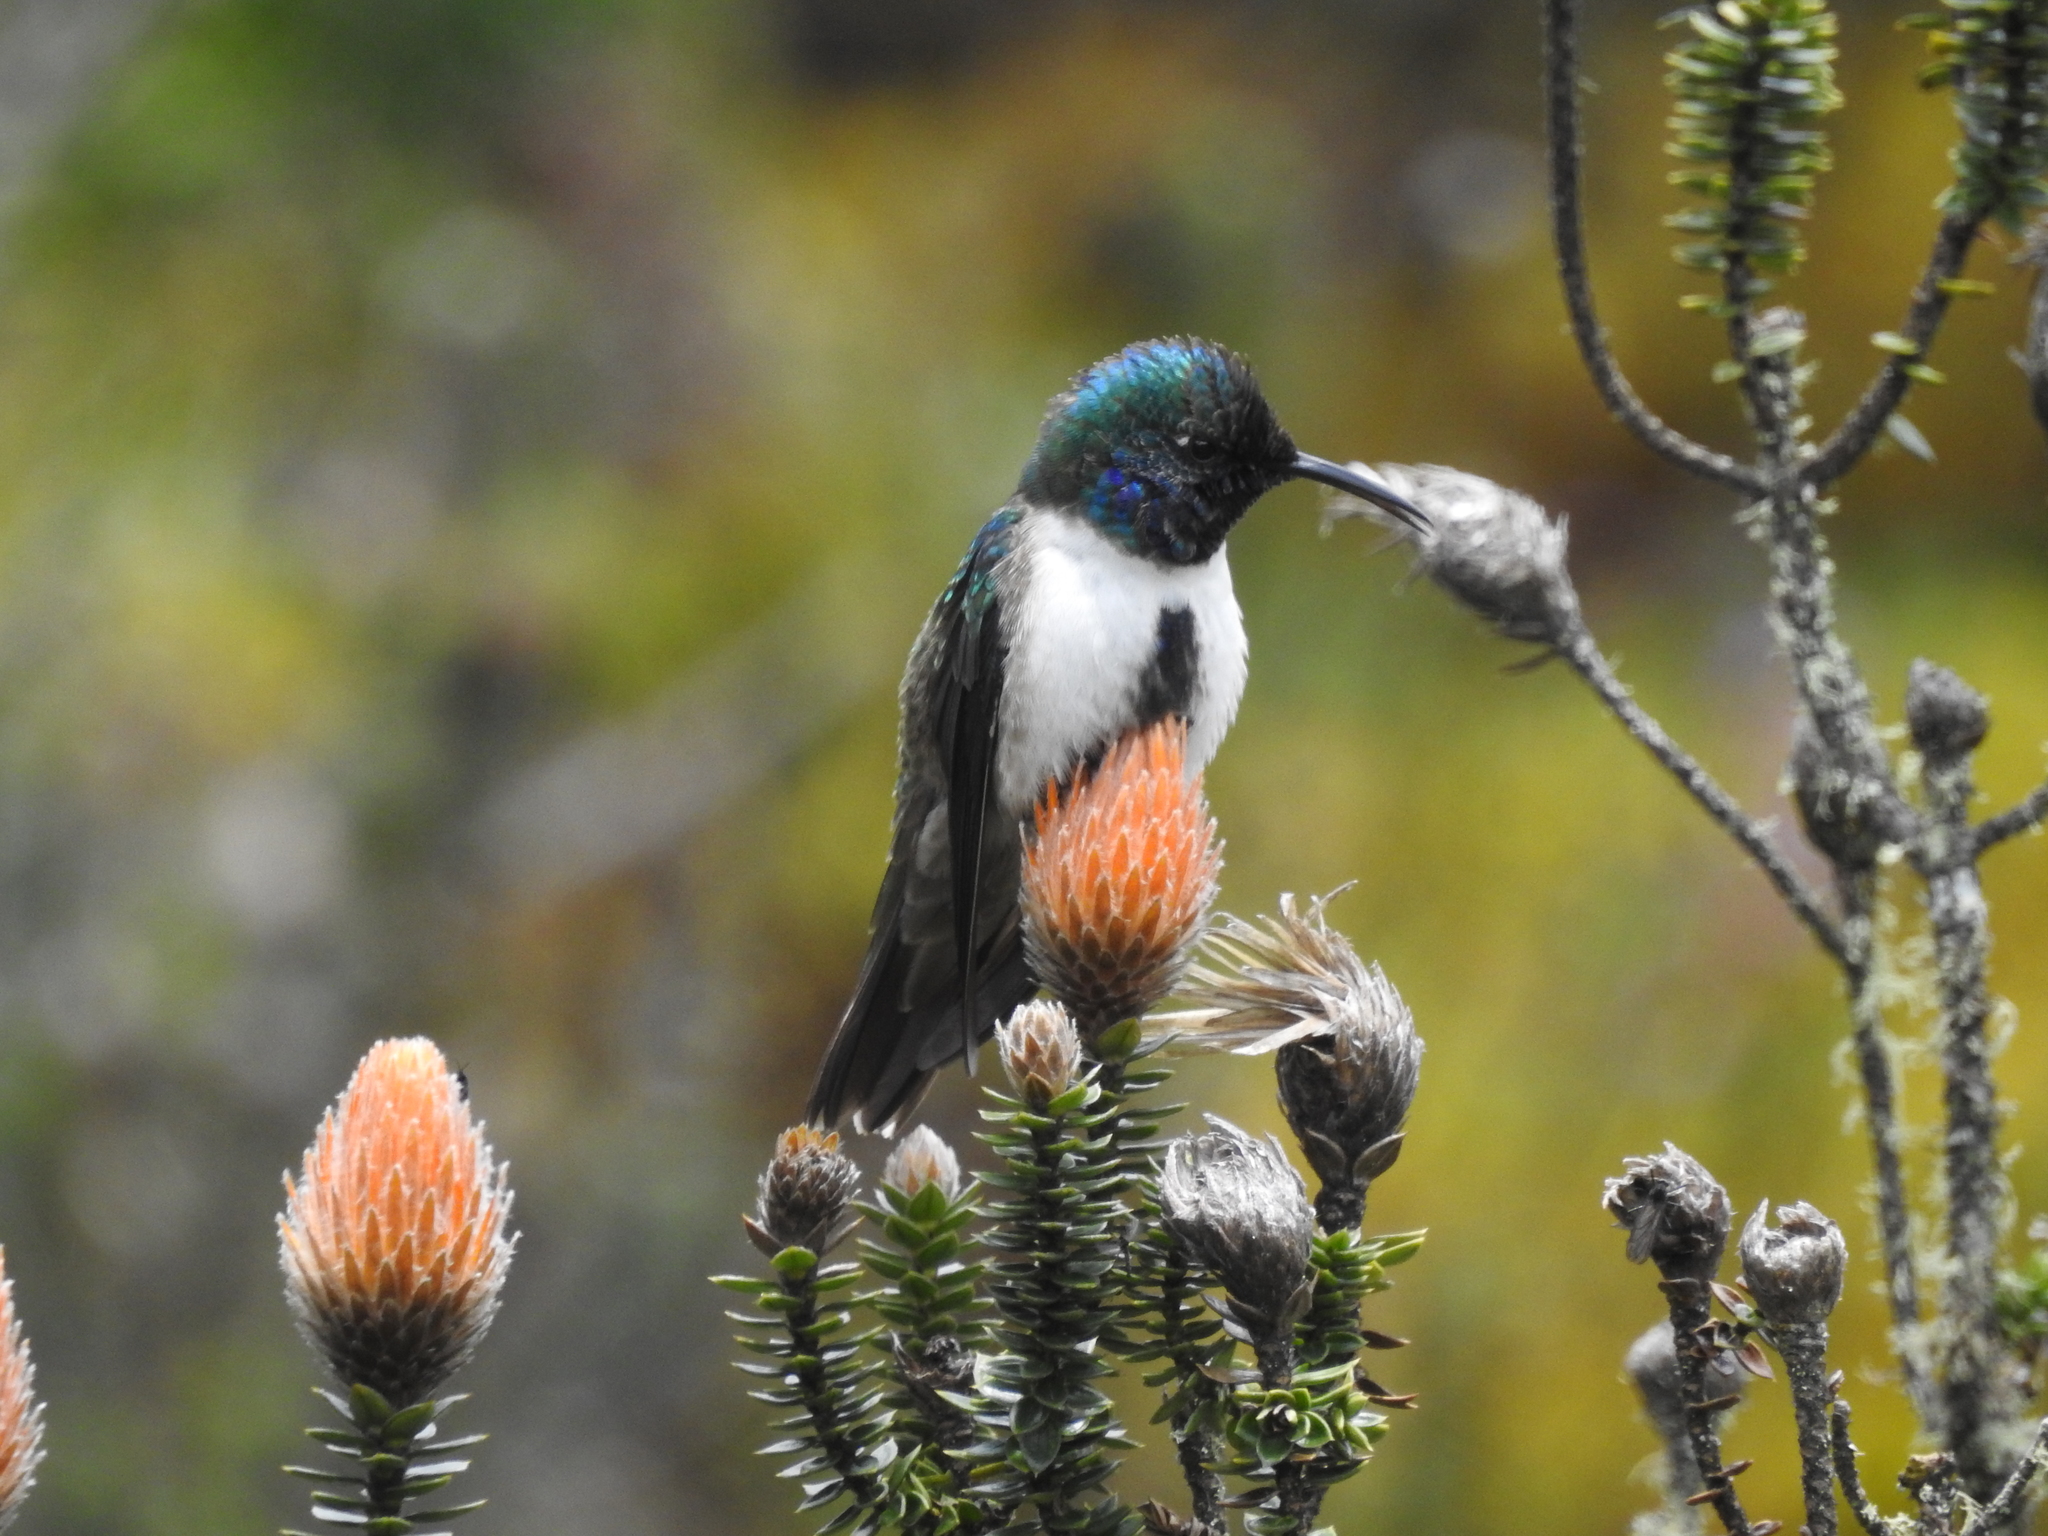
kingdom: Animalia
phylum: Chordata
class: Aves
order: Apodiformes
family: Trochilidae
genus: Oreotrochilus
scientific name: Oreotrochilus chimborazo
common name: Ecuadorian hillstar
